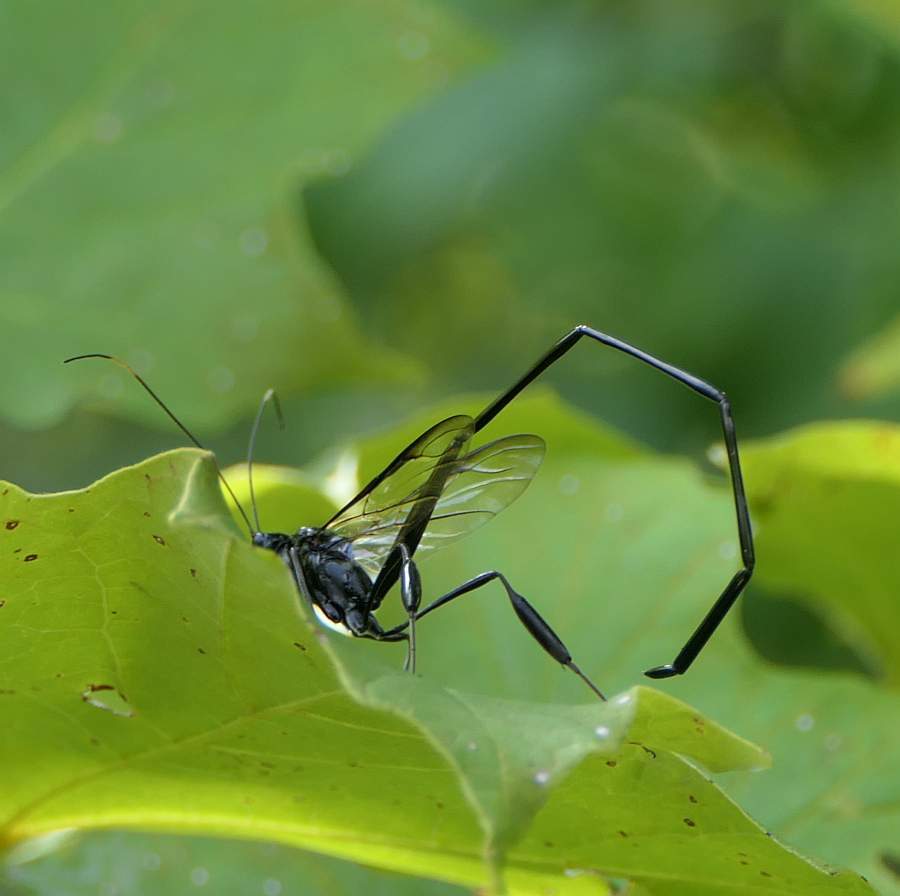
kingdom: Animalia
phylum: Arthropoda
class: Insecta
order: Hymenoptera
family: Pelecinidae
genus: Pelecinus
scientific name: Pelecinus polyturator
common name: American pelecinid wasp
